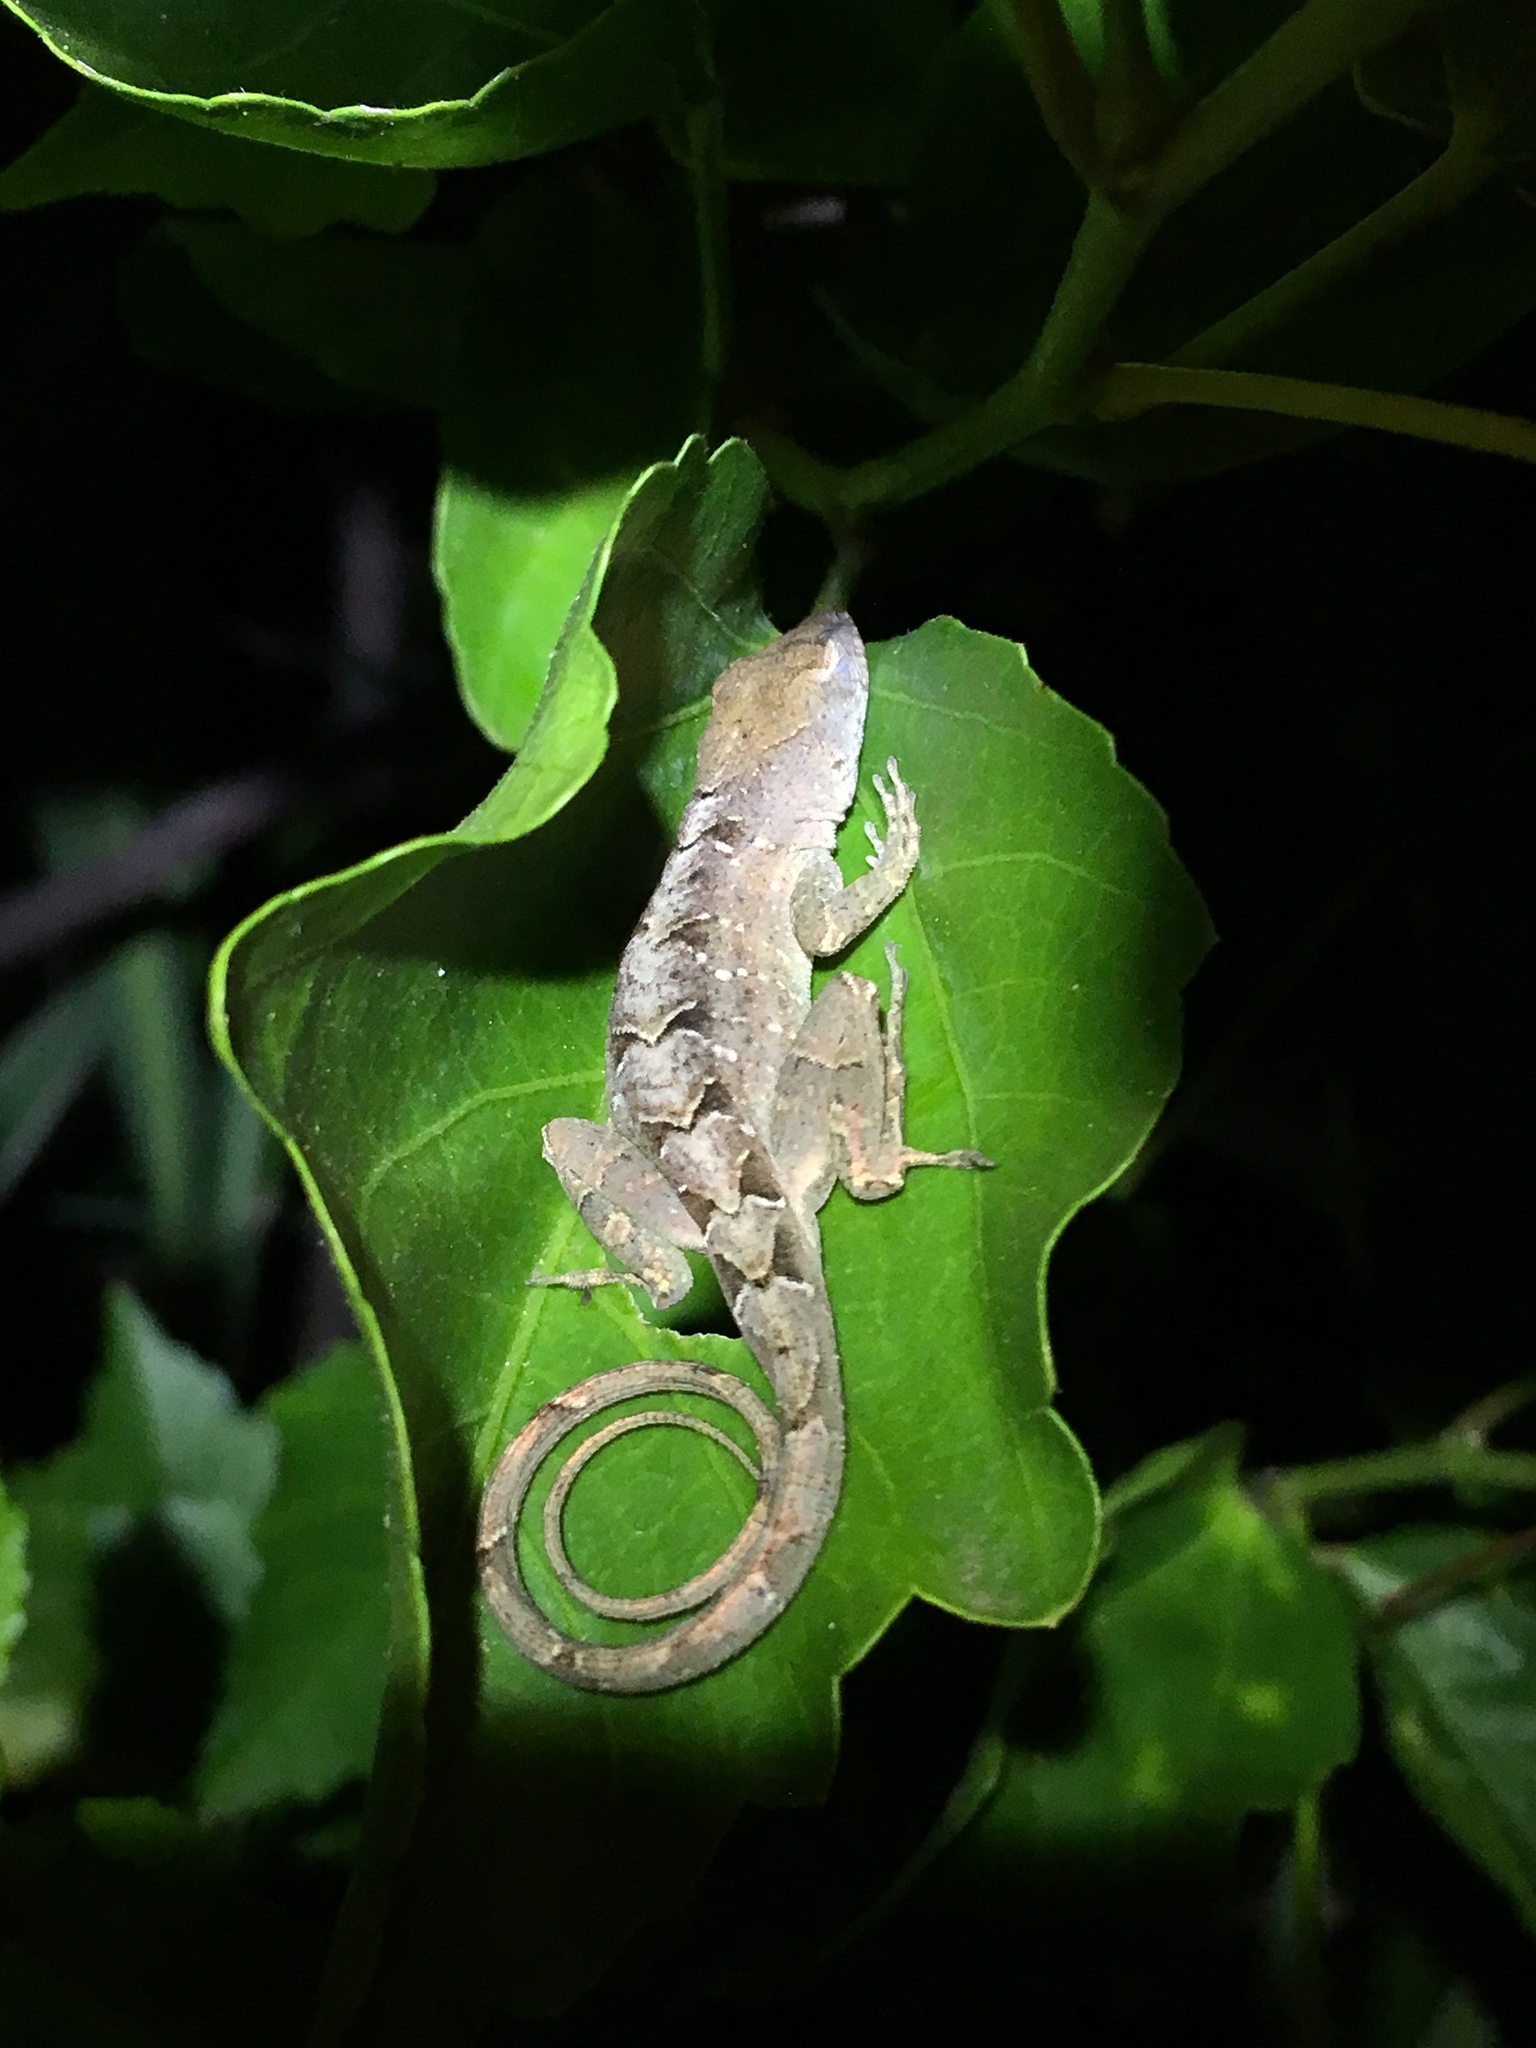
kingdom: Animalia
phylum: Chordata
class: Squamata
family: Dactyloidae
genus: Anolis
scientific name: Anolis sagrei
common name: Brown anole
